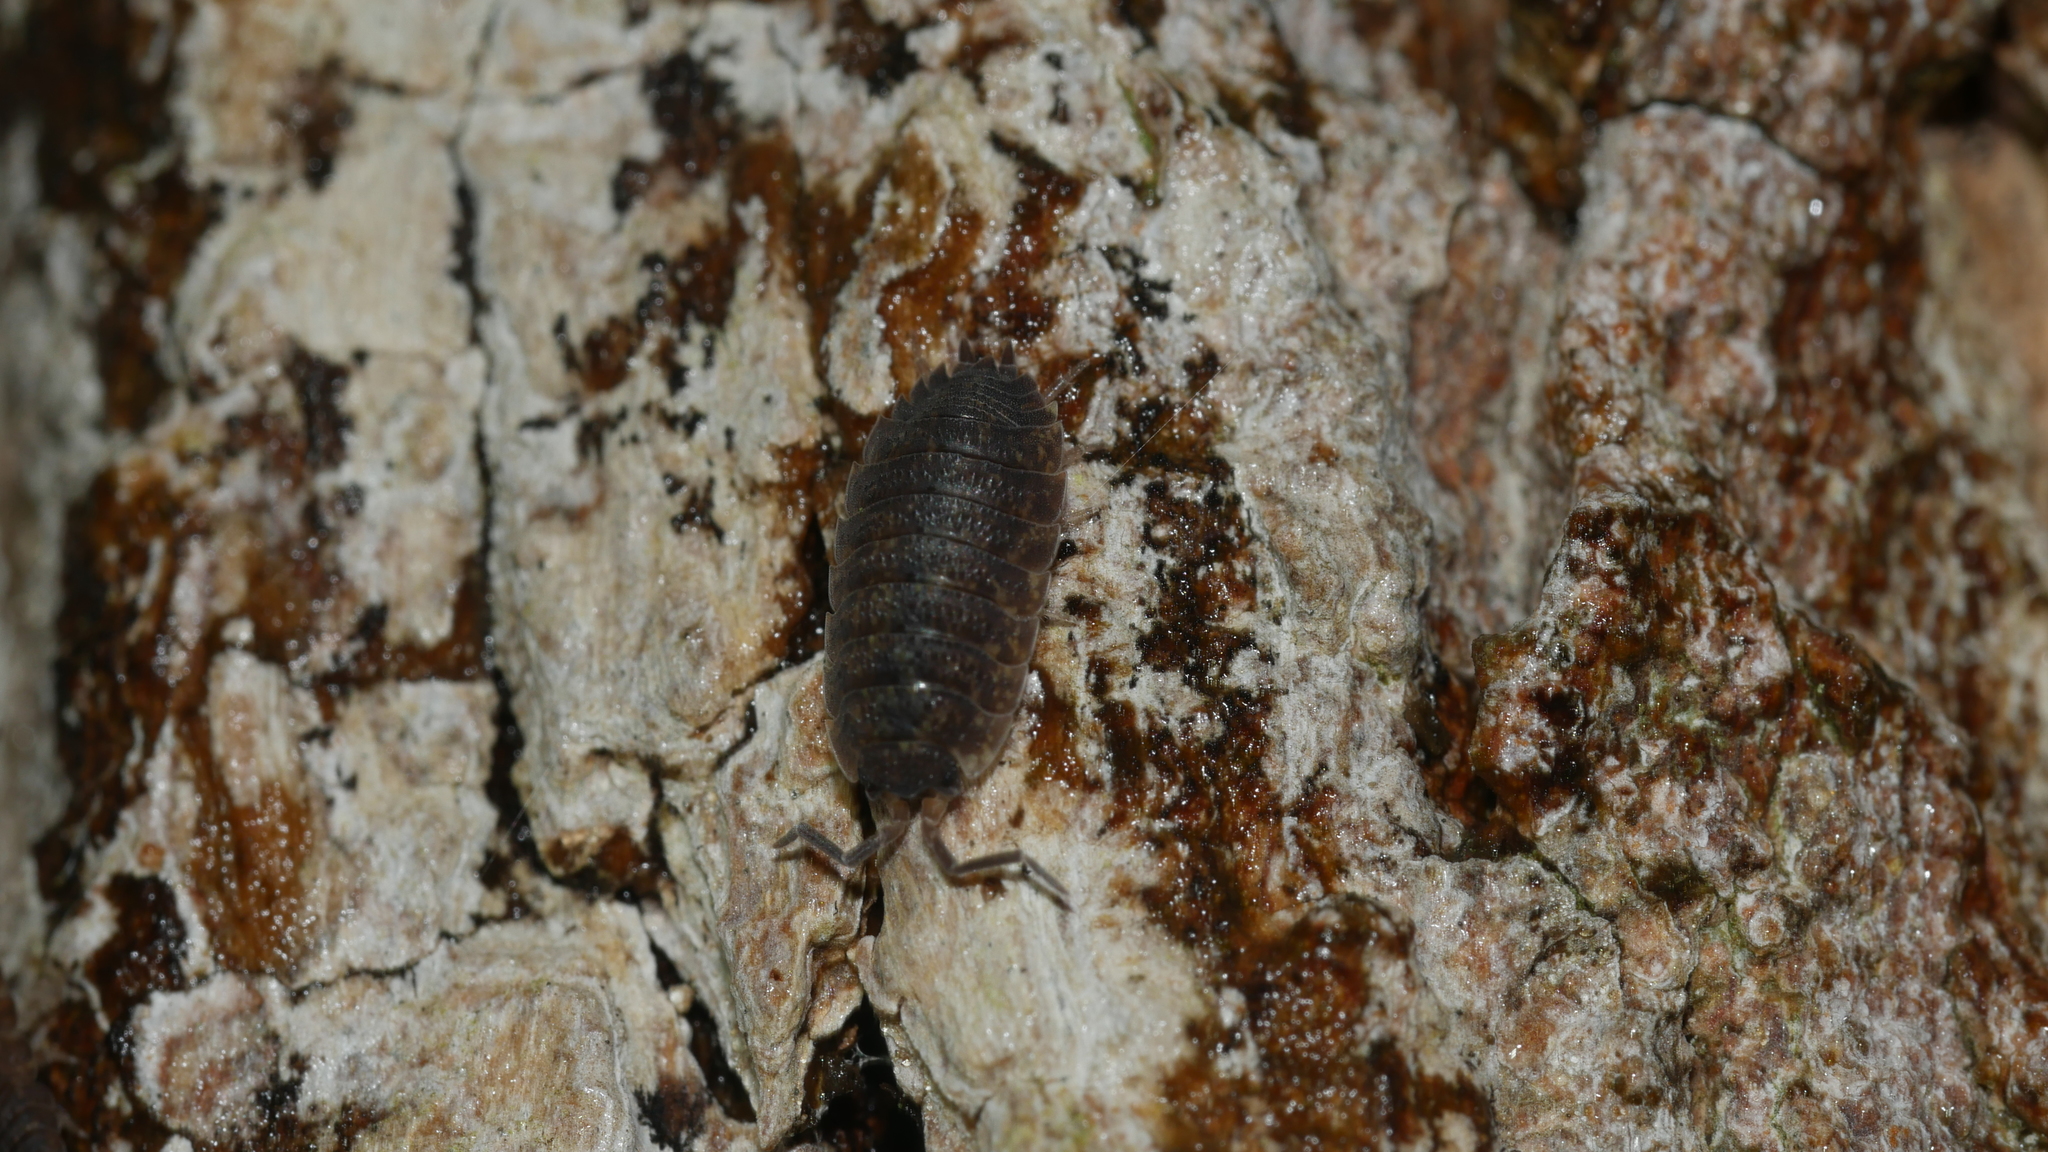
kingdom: Animalia
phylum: Arthropoda
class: Malacostraca
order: Isopoda
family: Porcellionidae
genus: Porcellio
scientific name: Porcellio scaber
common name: Common rough woodlouse
